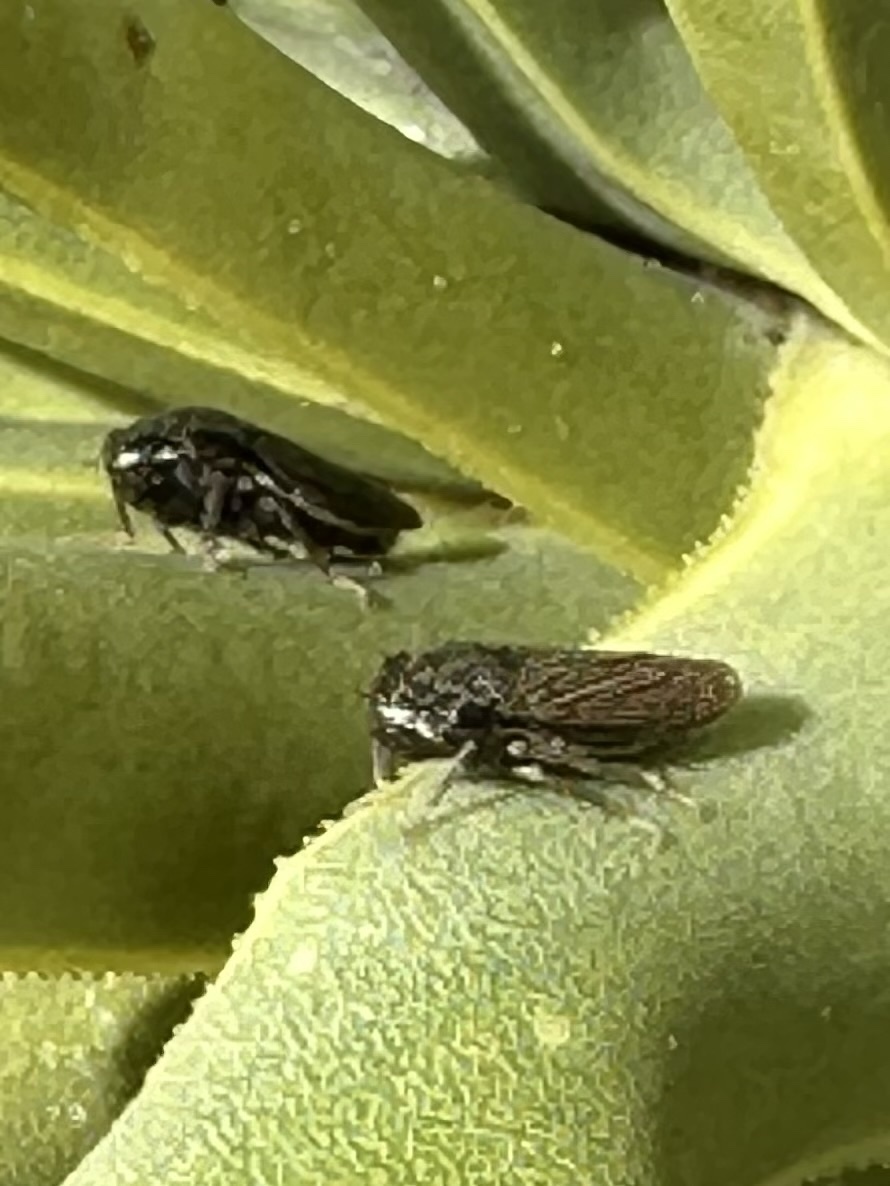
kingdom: Animalia
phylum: Arthropoda
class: Insecta
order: Hemiptera
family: Cicadellidae
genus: Cuerna
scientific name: Cuerna yuccae
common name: Yucca sharpshooter
